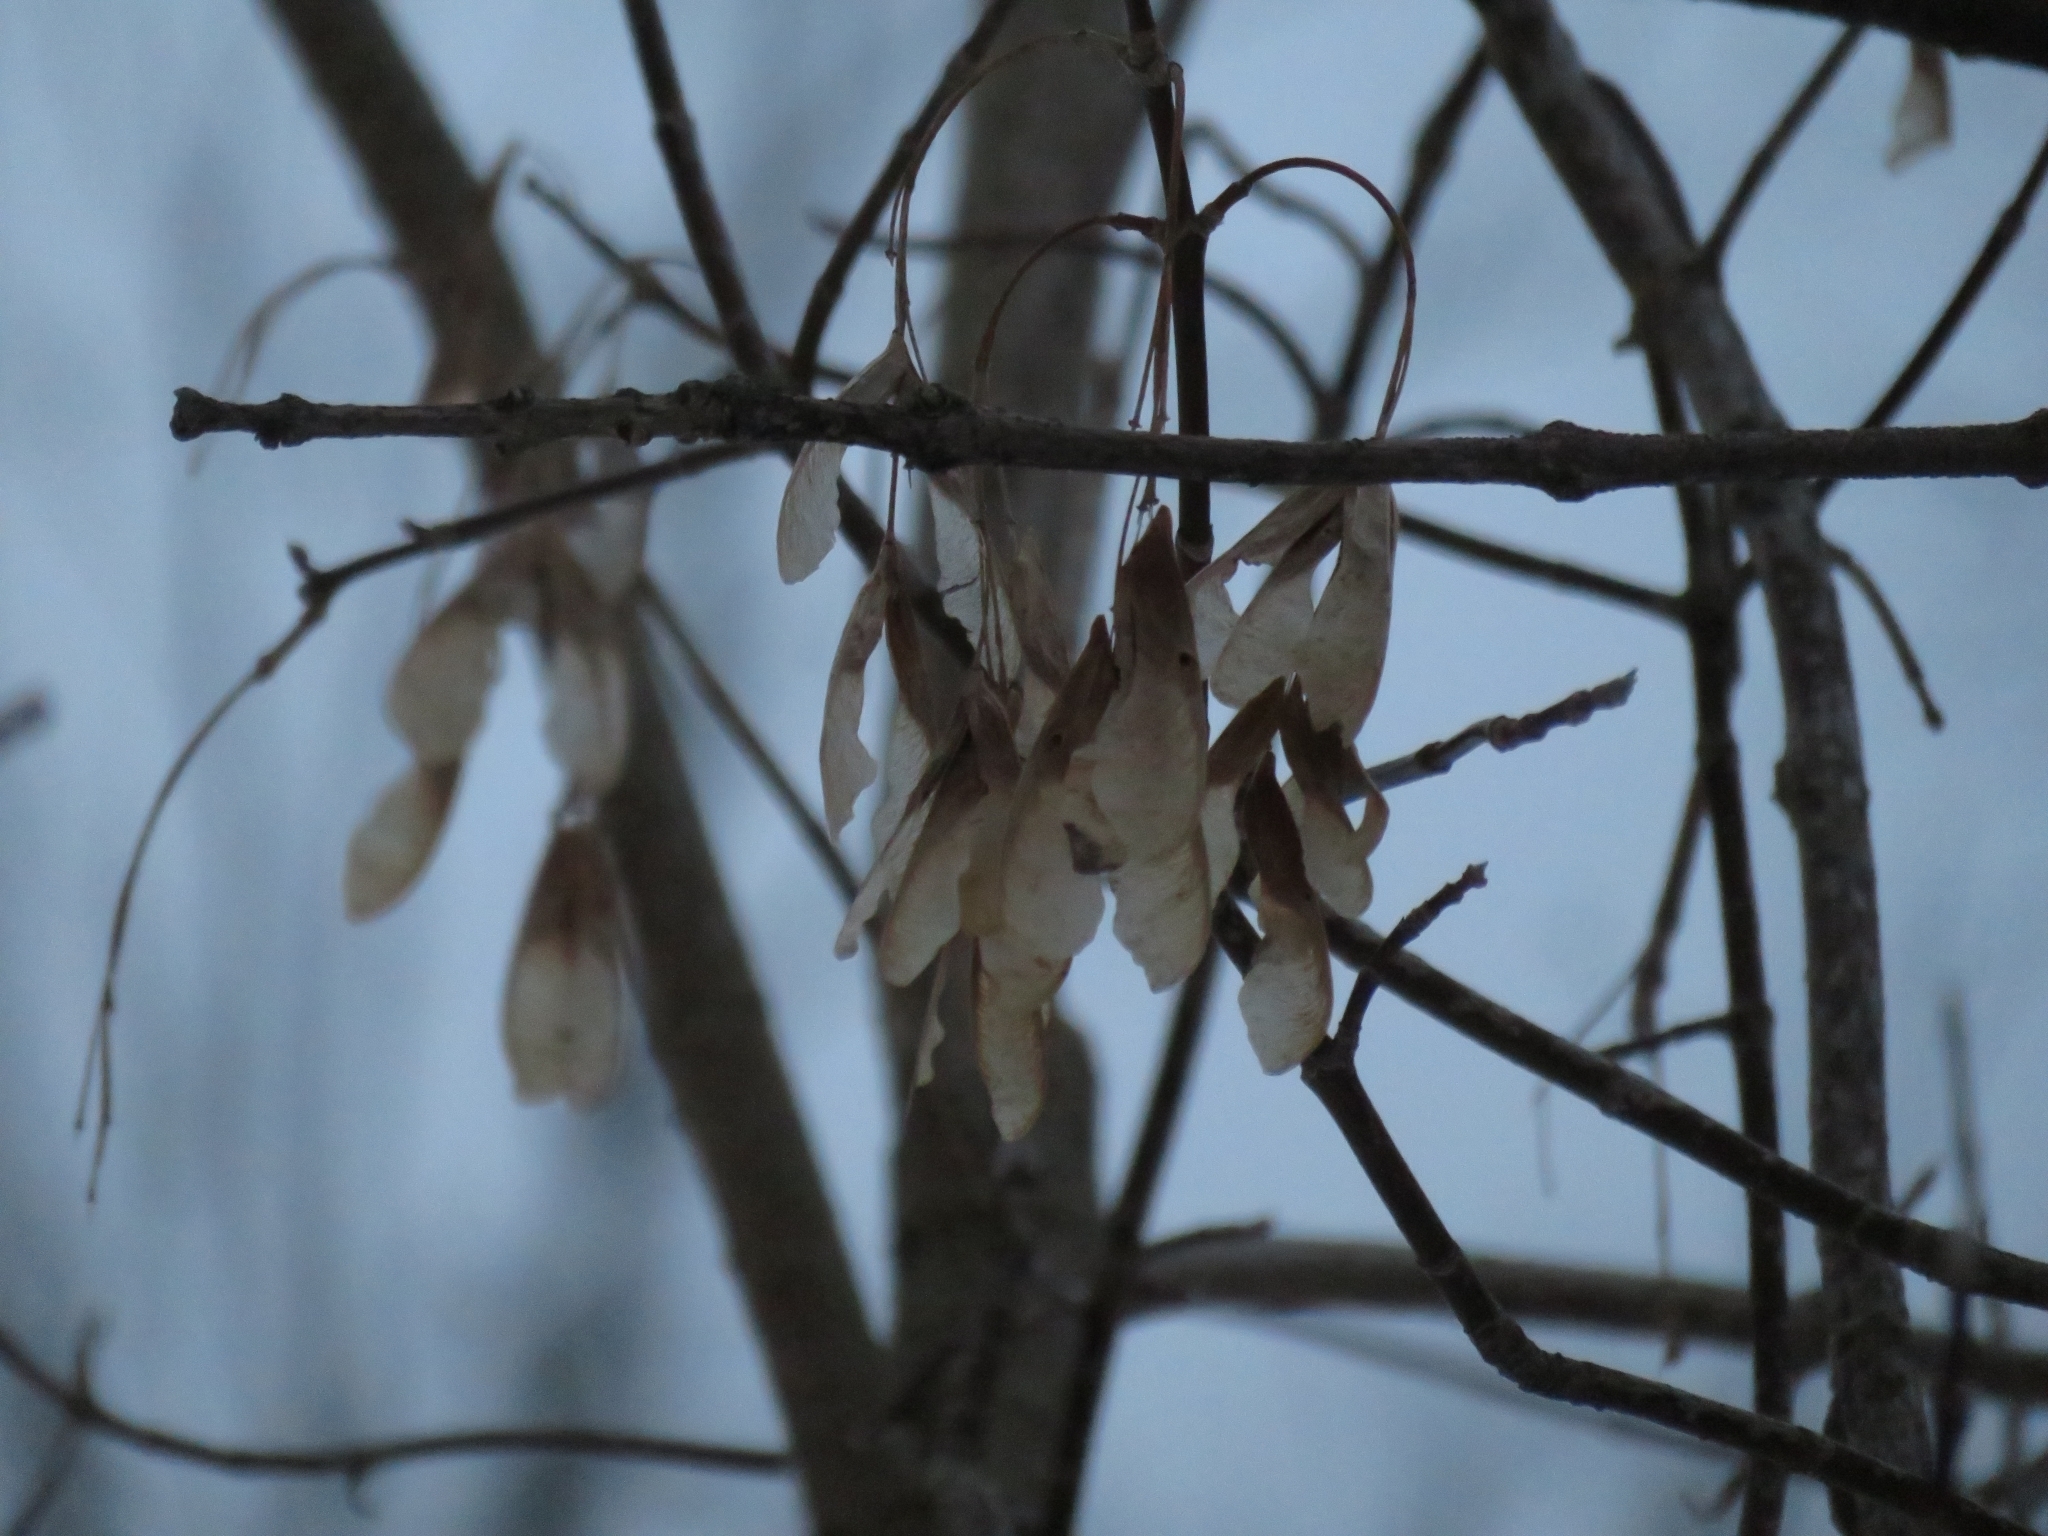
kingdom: Plantae
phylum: Tracheophyta
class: Magnoliopsida
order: Sapindales
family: Sapindaceae
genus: Acer
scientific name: Acer negundo
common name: Ashleaf maple
